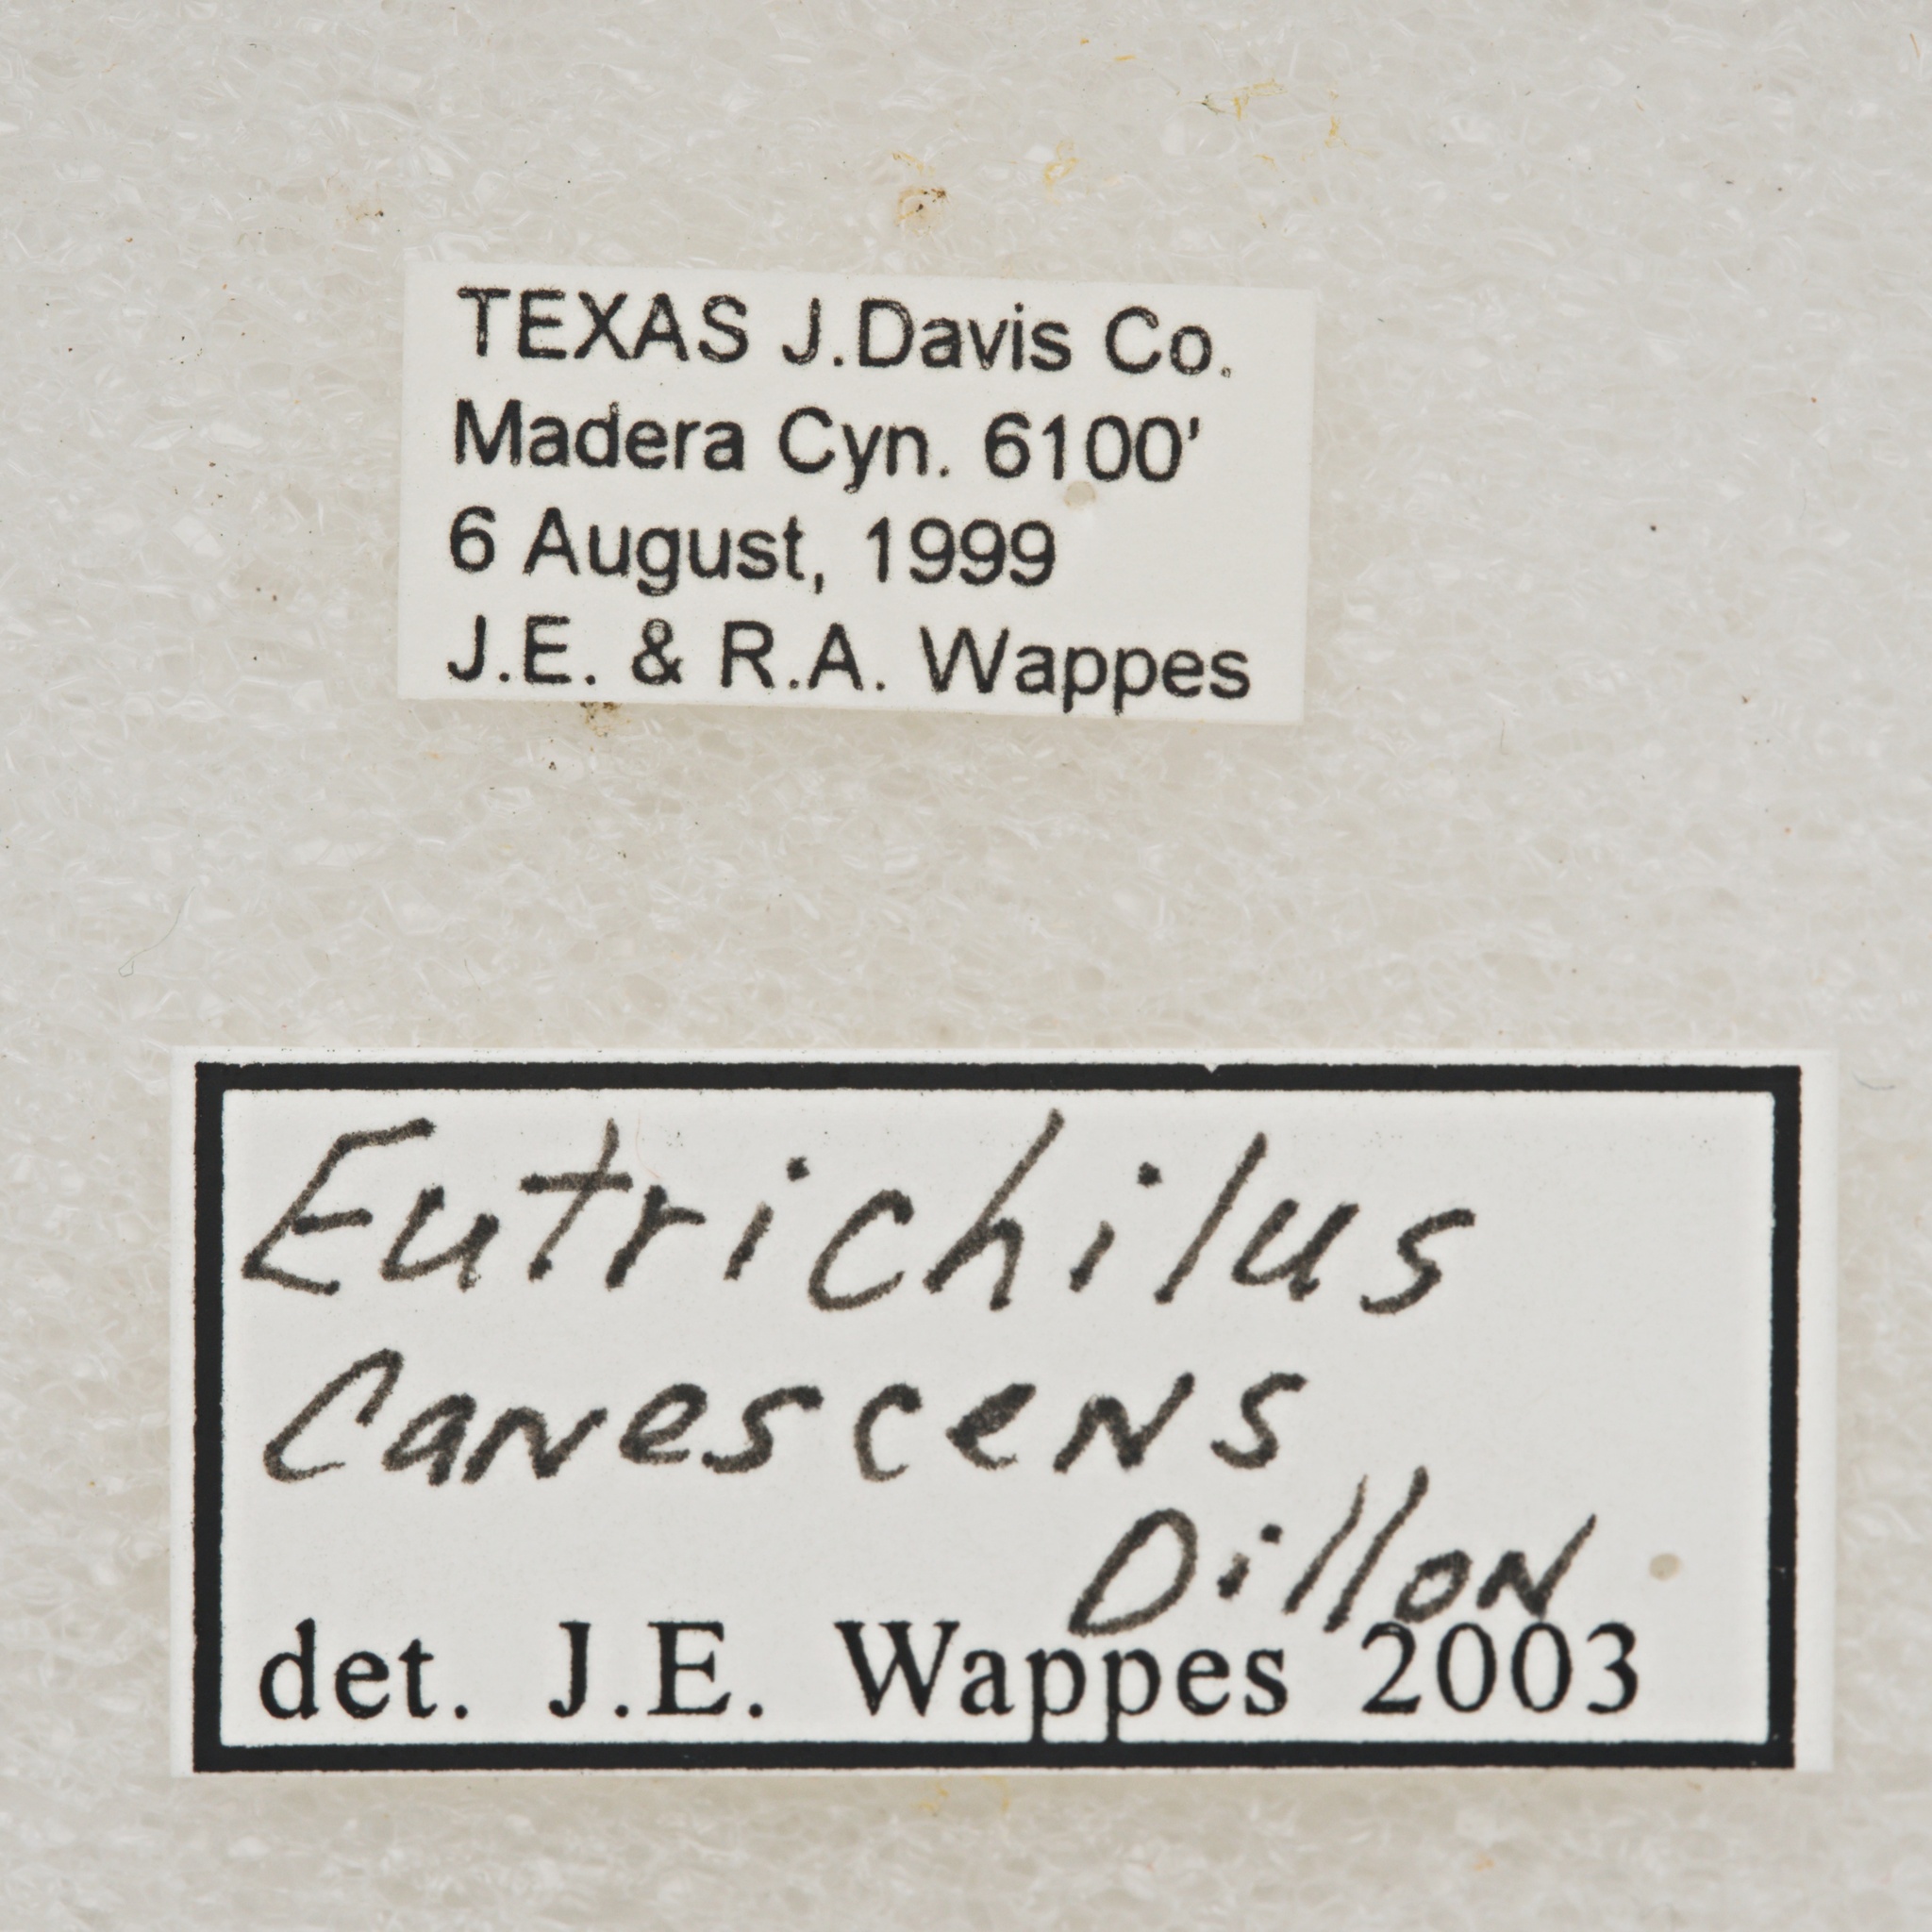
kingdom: Animalia
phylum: Arthropoda
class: Insecta
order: Coleoptera
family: Cerambycidae
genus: Eutrichillus
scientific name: Eutrichillus canescens
